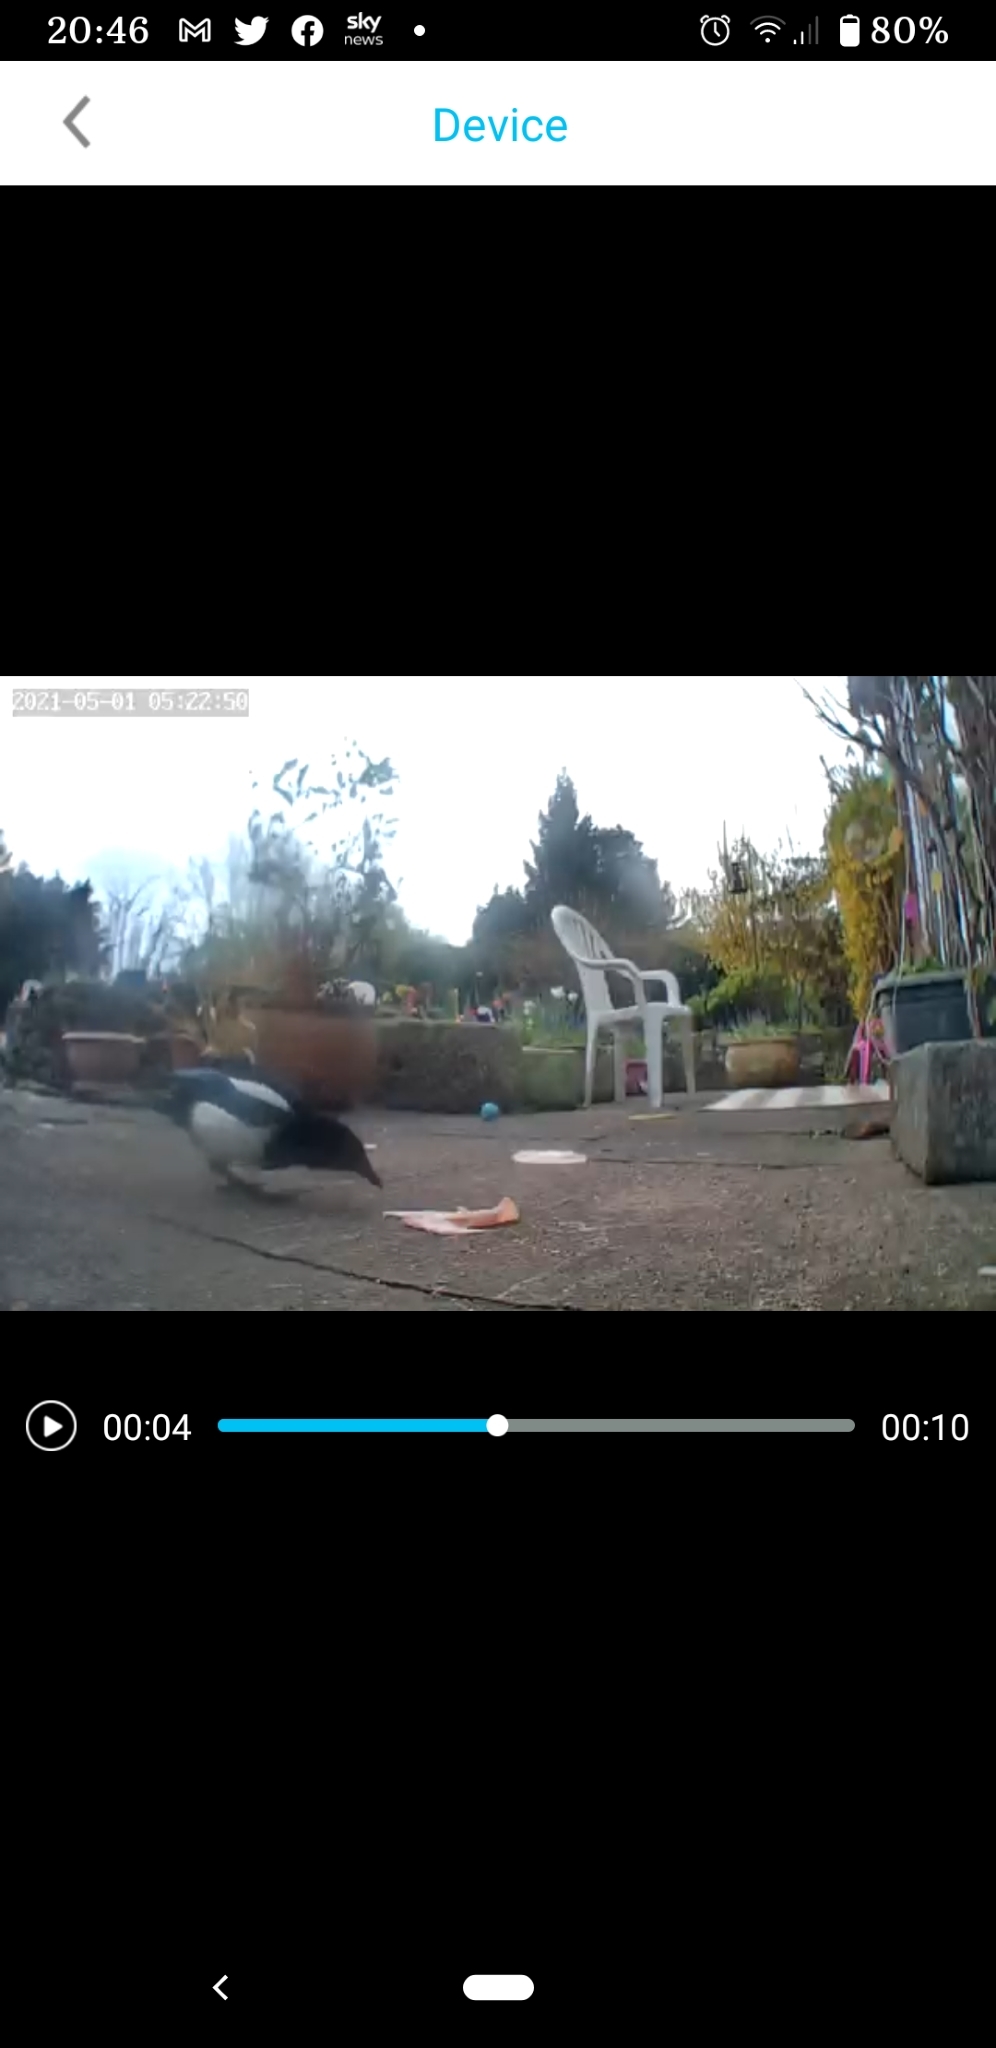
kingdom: Animalia
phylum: Chordata
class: Aves
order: Passeriformes
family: Corvidae
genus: Pica
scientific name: Pica pica
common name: Eurasian magpie
